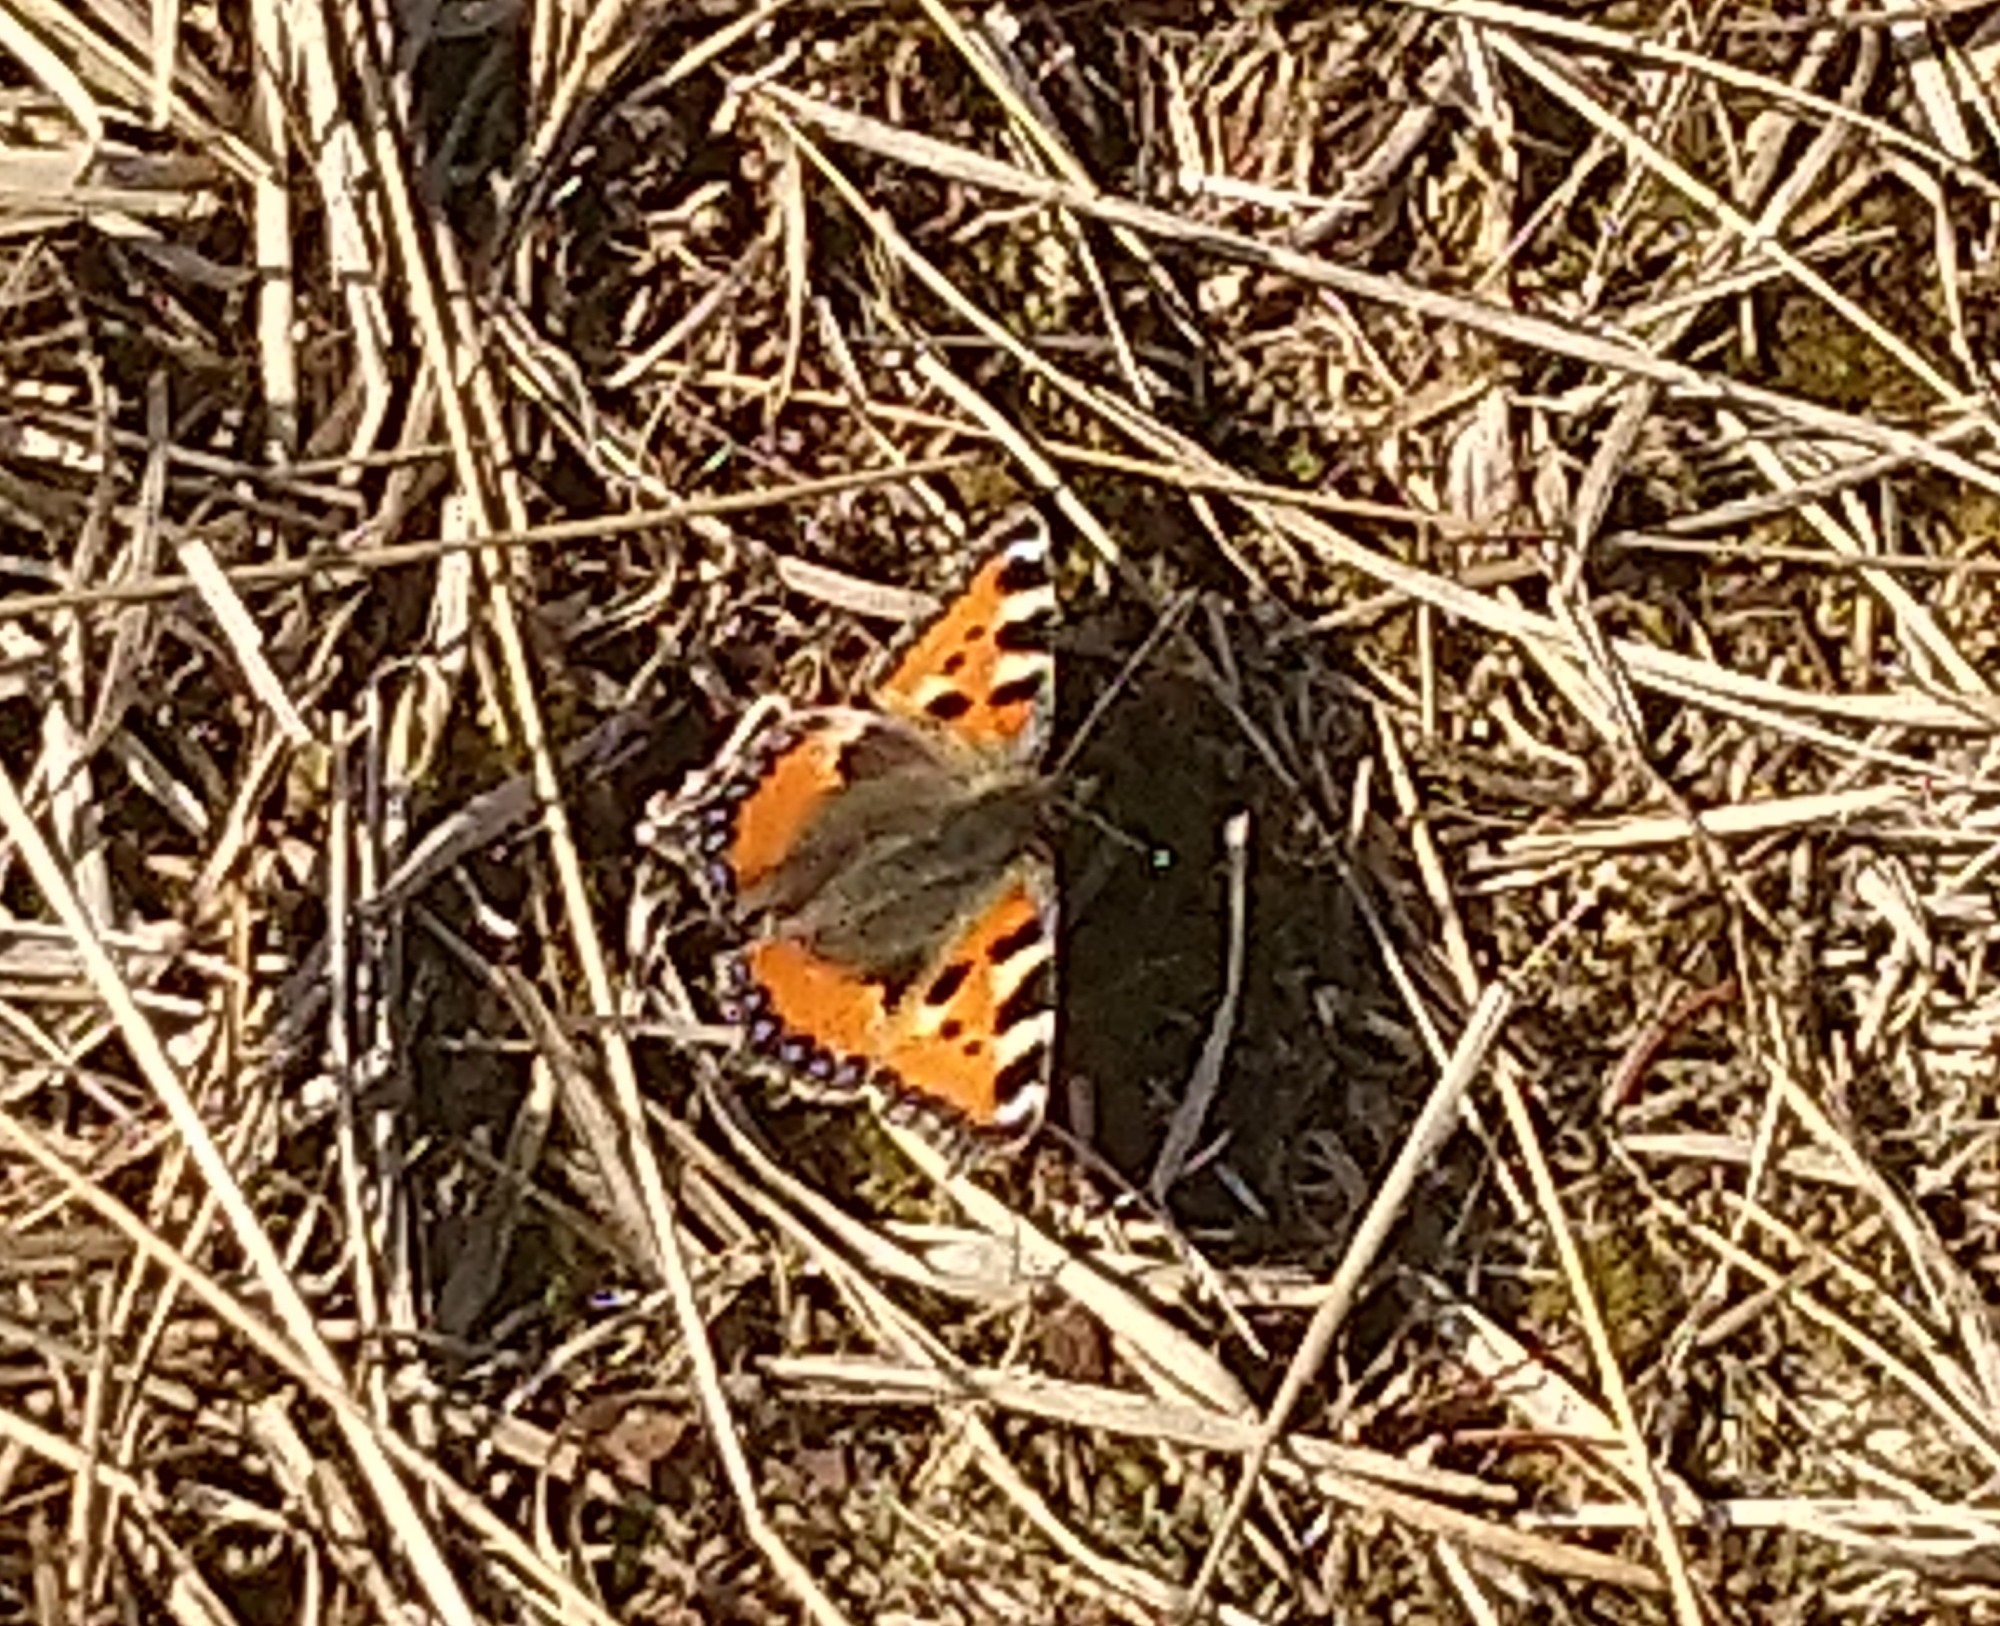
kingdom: Animalia
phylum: Arthropoda
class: Insecta
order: Lepidoptera
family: Nymphalidae
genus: Aglais
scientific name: Aglais urticae
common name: Small tortoiseshell
